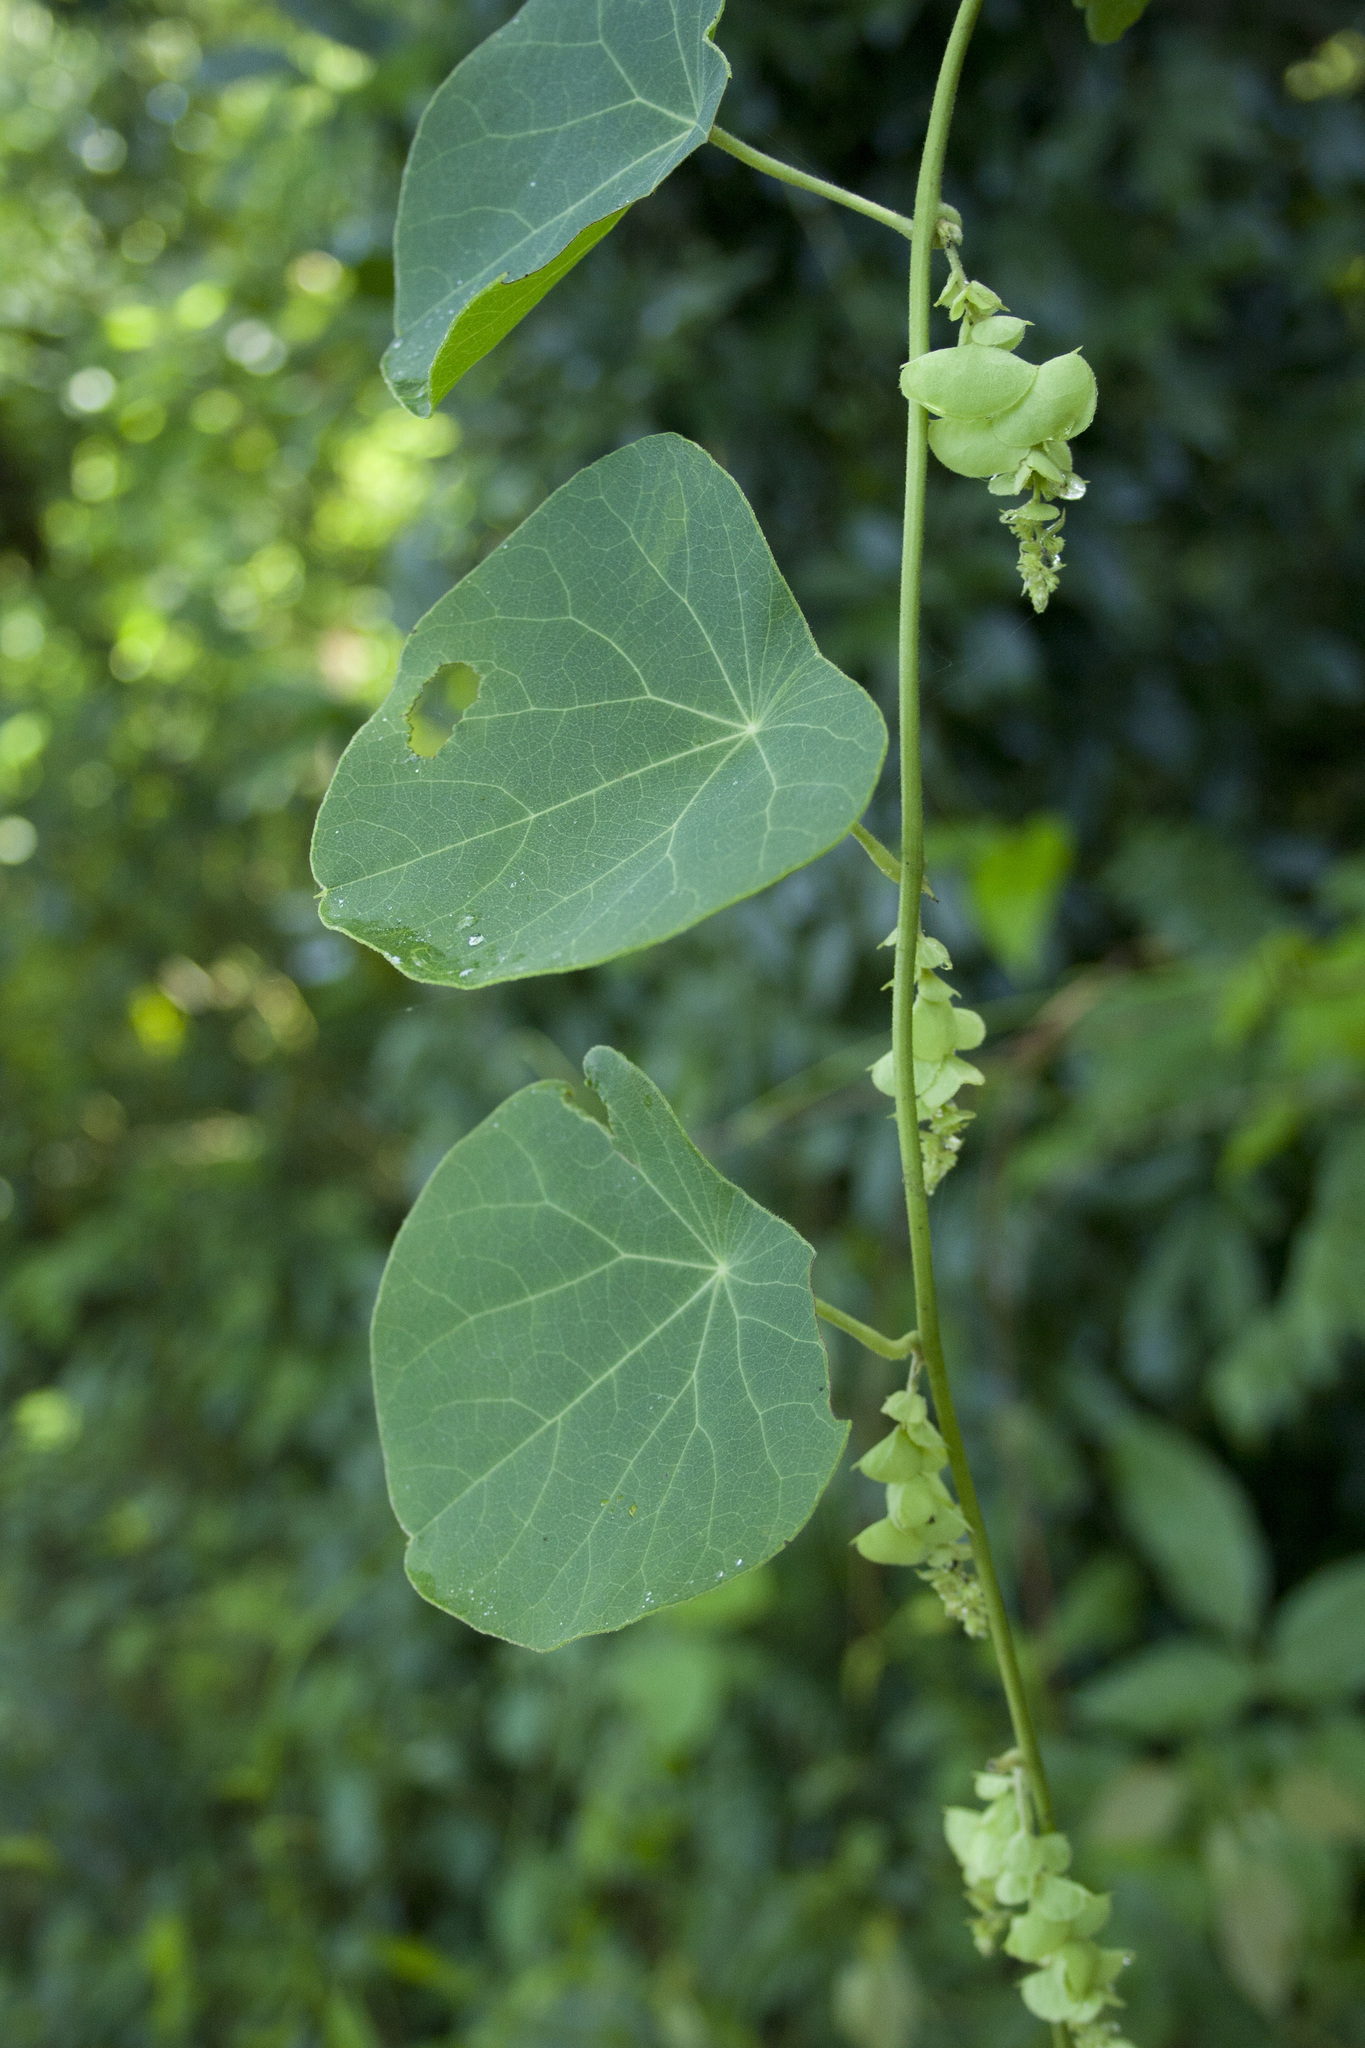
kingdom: Plantae
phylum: Tracheophyta
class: Magnoliopsida
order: Ranunculales
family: Menispermaceae
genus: Cissampelos
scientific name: Cissampelos pareira
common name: Velvetleaf
